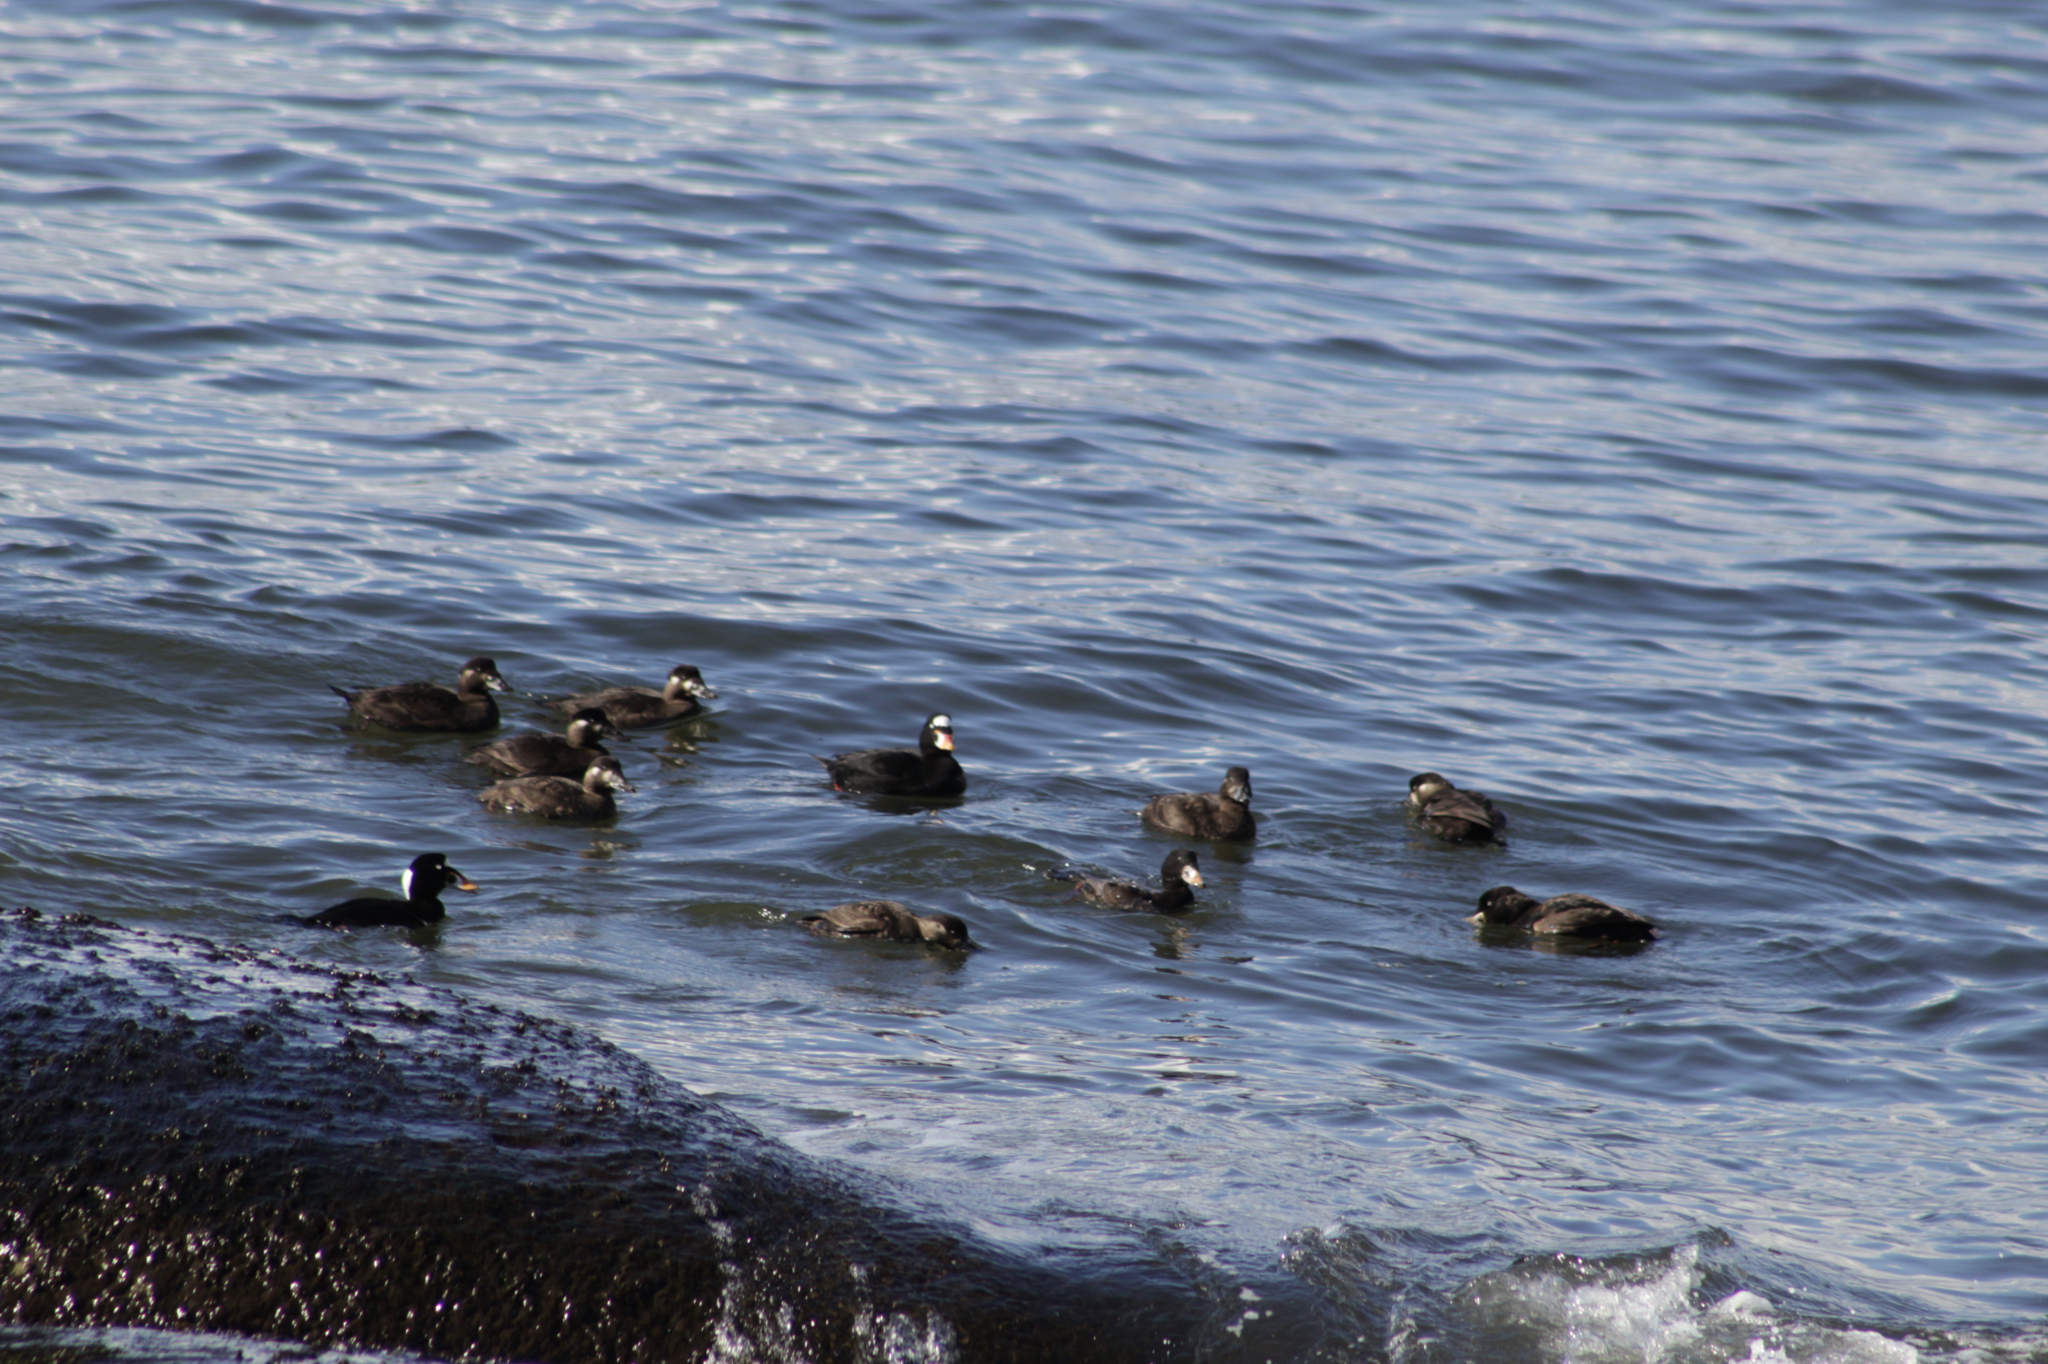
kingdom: Animalia
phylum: Chordata
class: Aves
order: Anseriformes
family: Anatidae
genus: Melanitta
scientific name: Melanitta perspicillata
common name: Surf scoter
